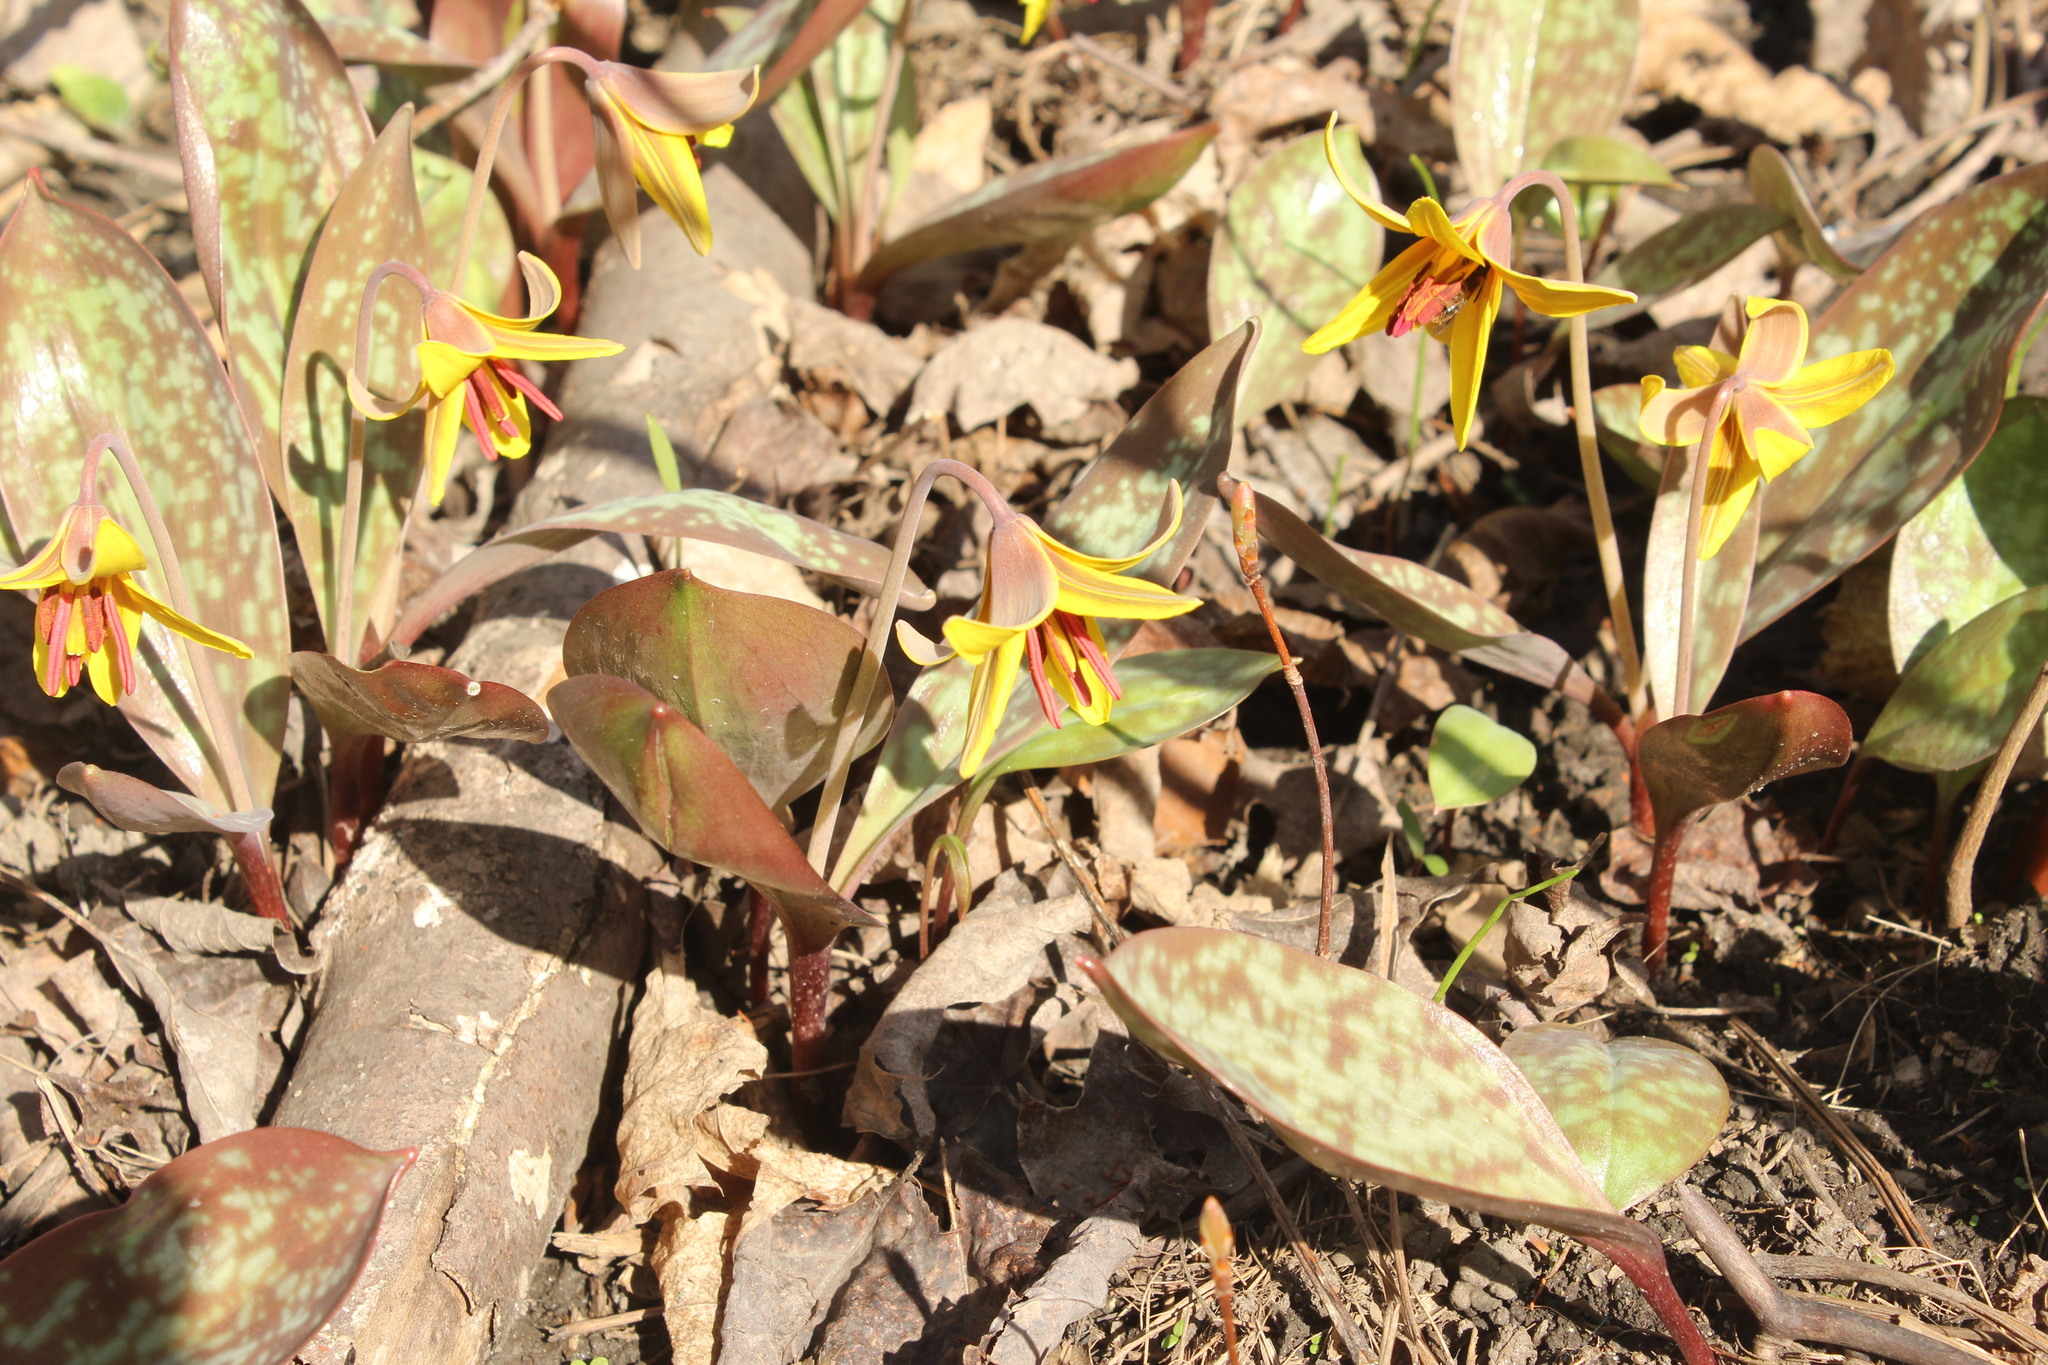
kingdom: Plantae
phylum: Tracheophyta
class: Liliopsida
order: Liliales
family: Liliaceae
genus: Erythronium
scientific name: Erythronium americanum
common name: Yellow adder's-tongue
